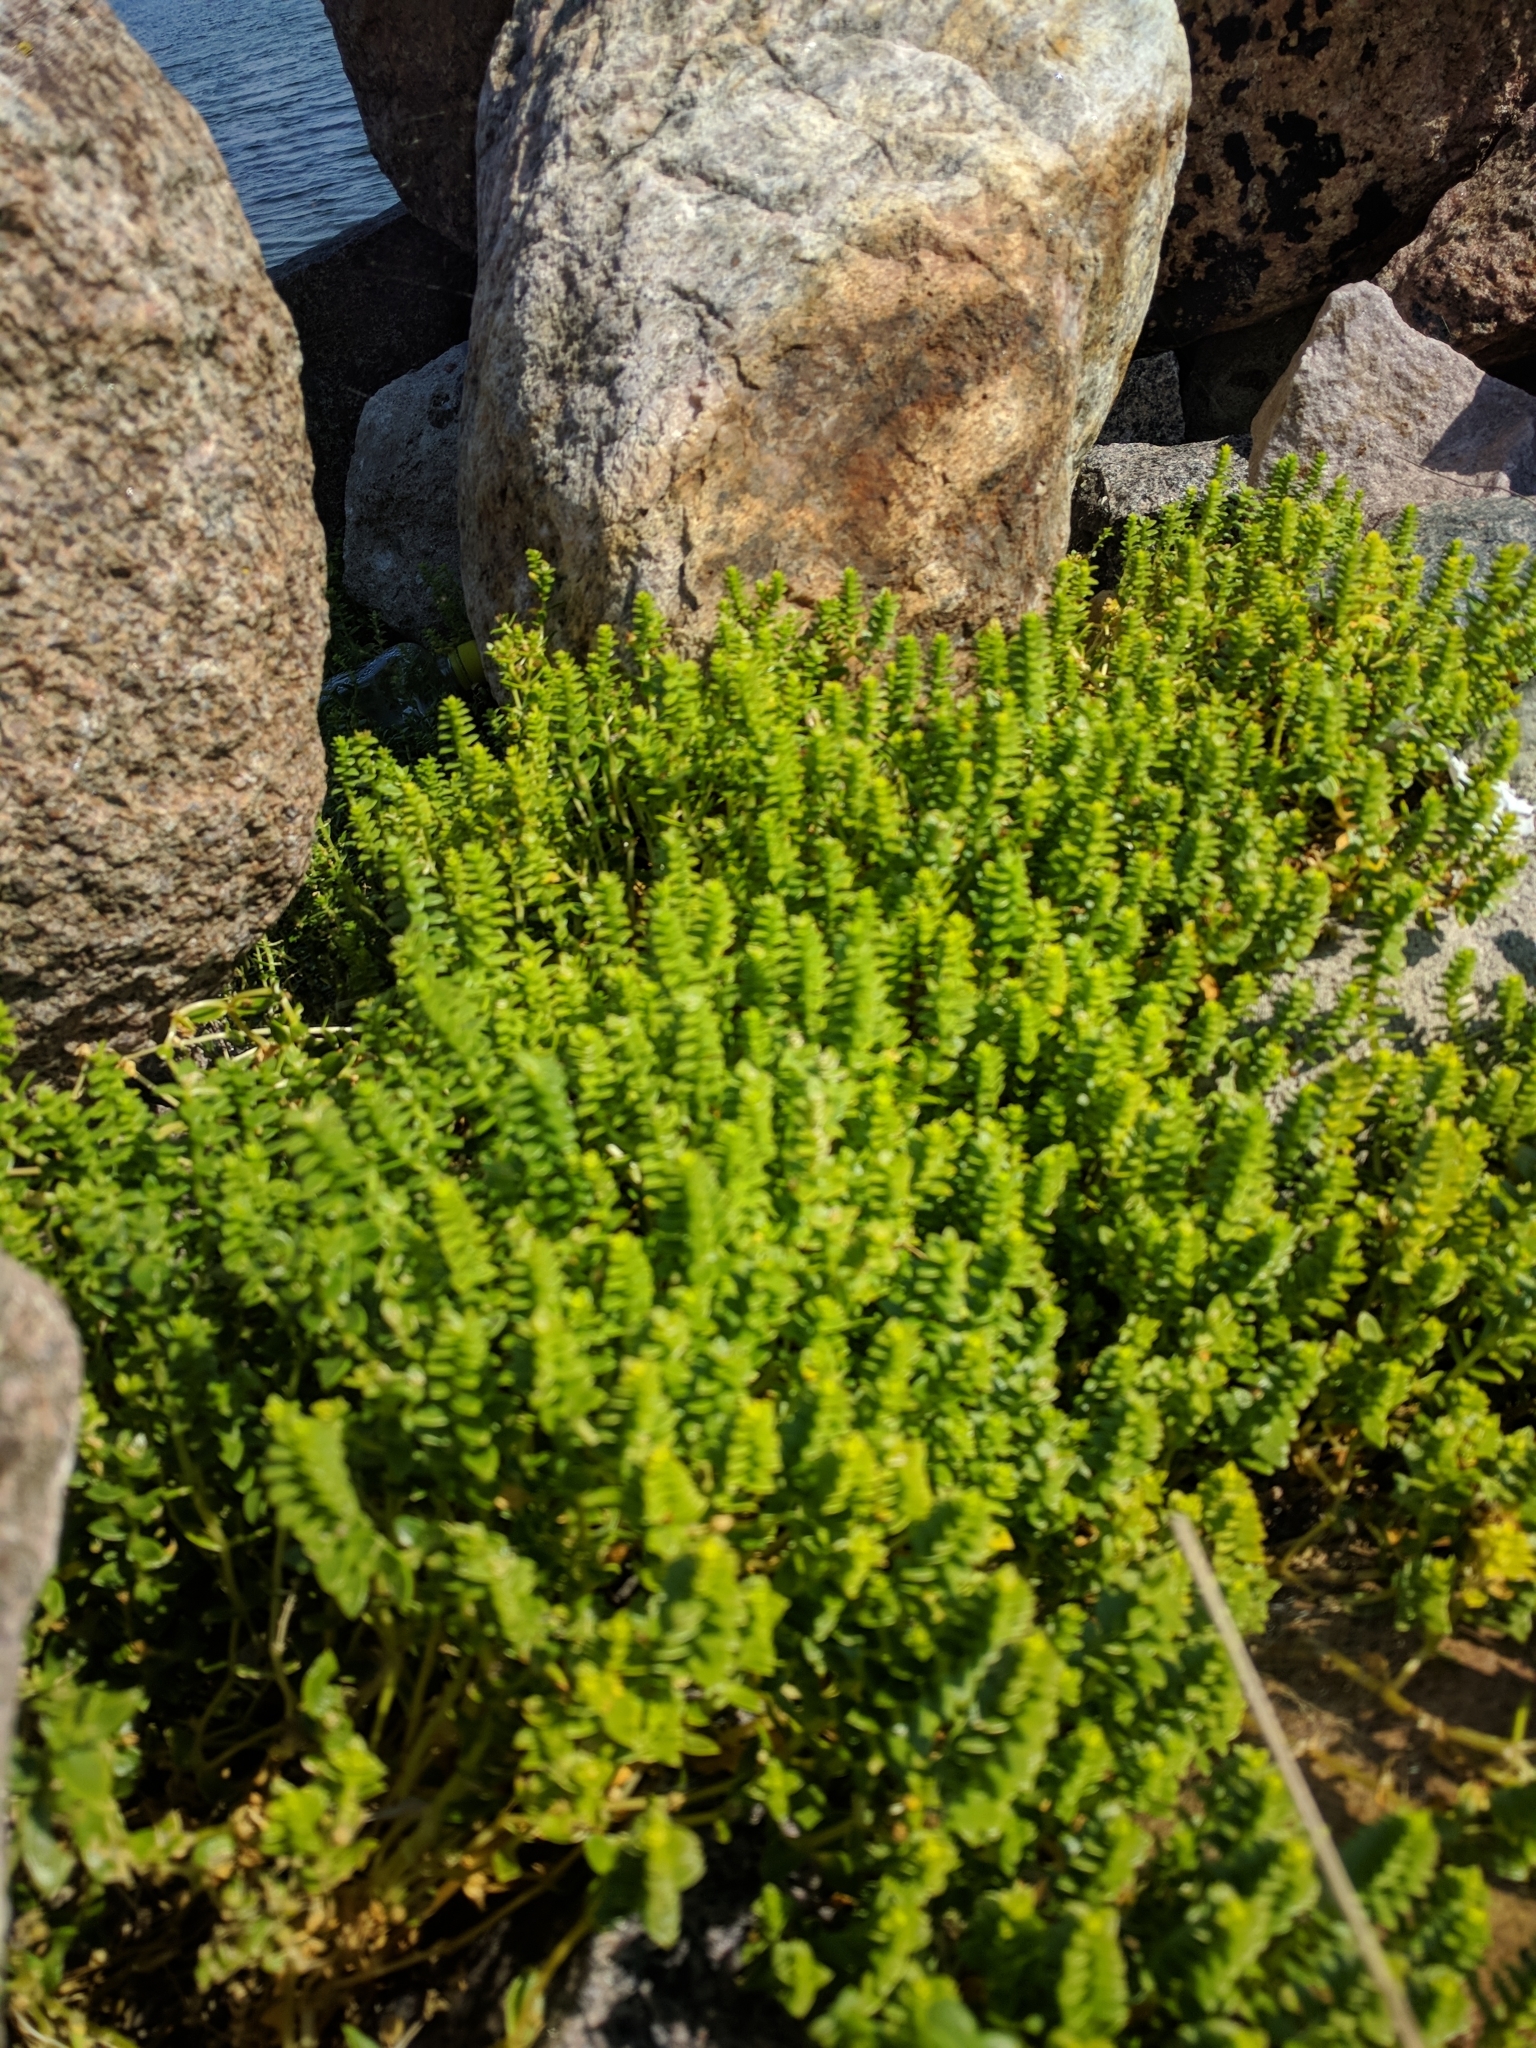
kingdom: Plantae
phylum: Tracheophyta
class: Magnoliopsida
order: Caryophyllales
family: Caryophyllaceae
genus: Honckenya
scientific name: Honckenya peploides
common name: Sea sandwort
